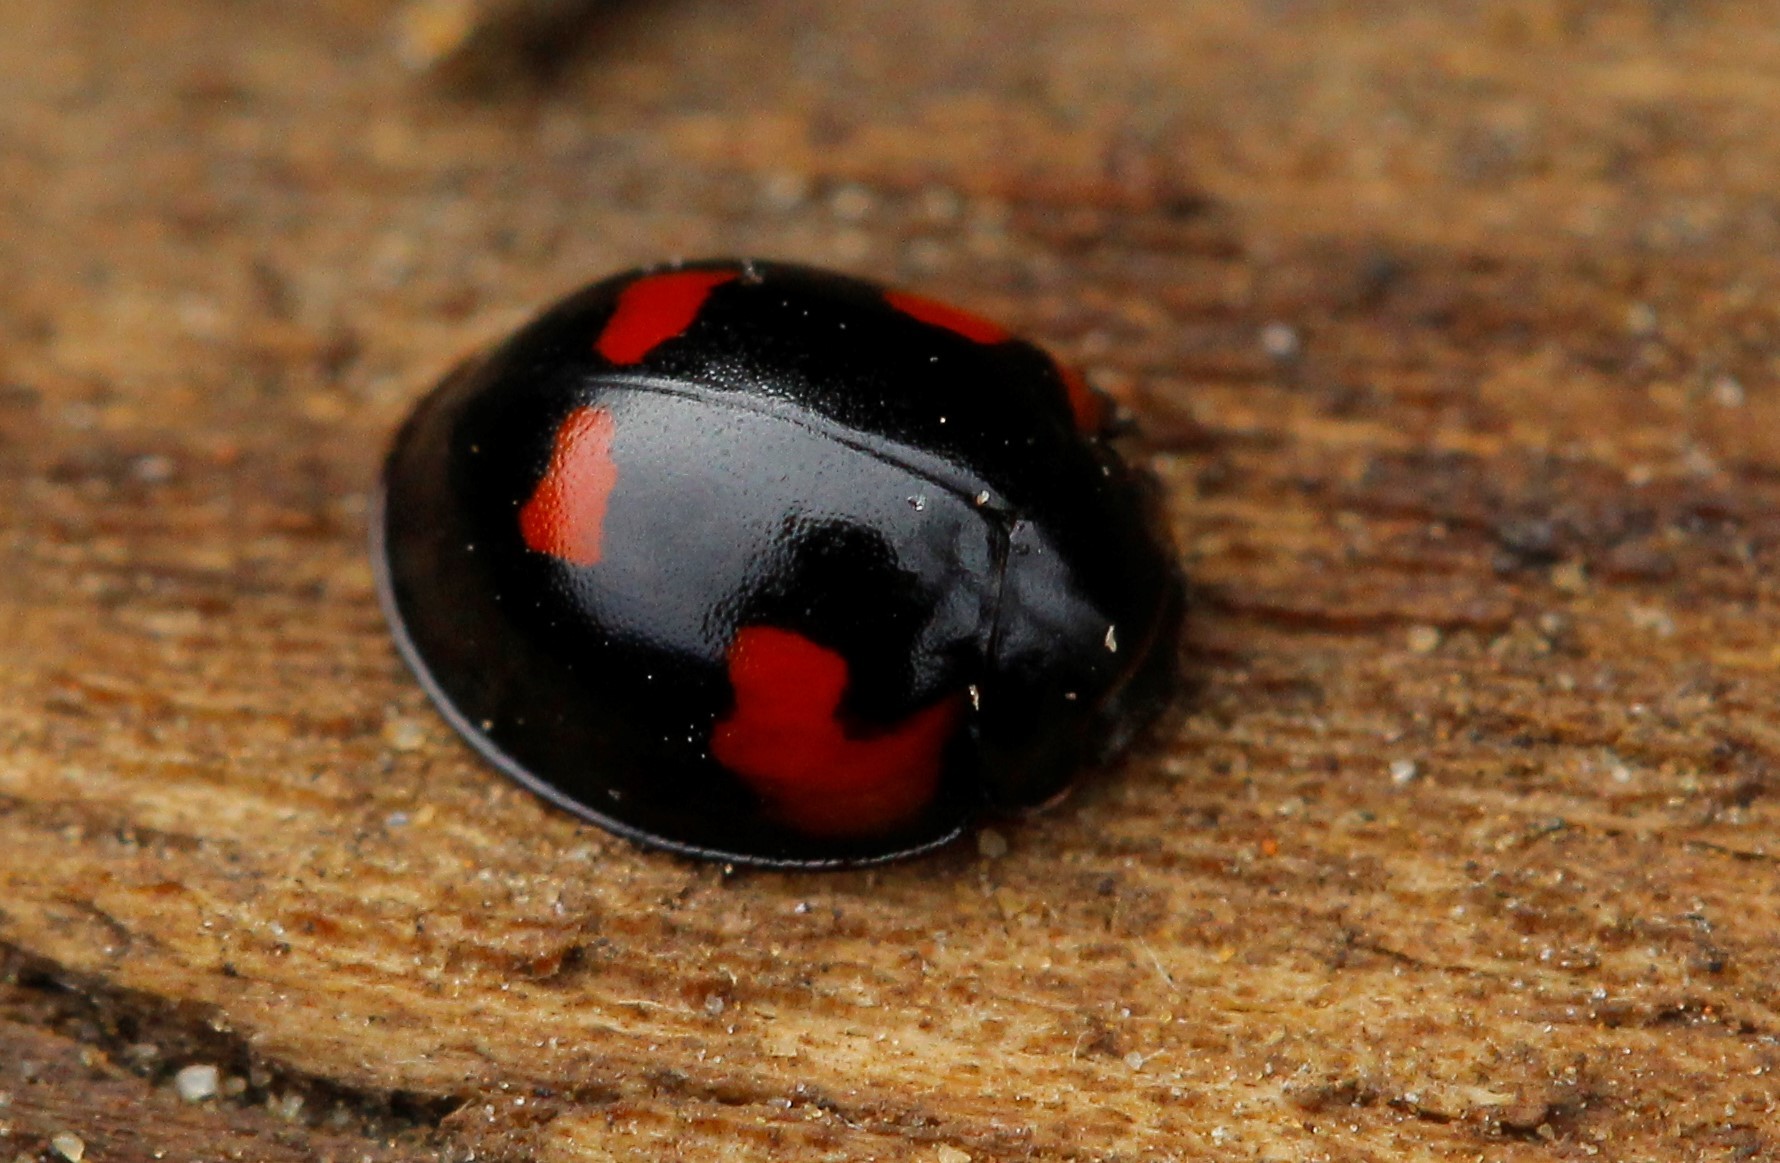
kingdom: Animalia
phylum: Arthropoda
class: Insecta
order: Coleoptera
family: Coccinellidae
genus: Brumus
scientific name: Brumus quadripustulatus
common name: Ladybird beetle
